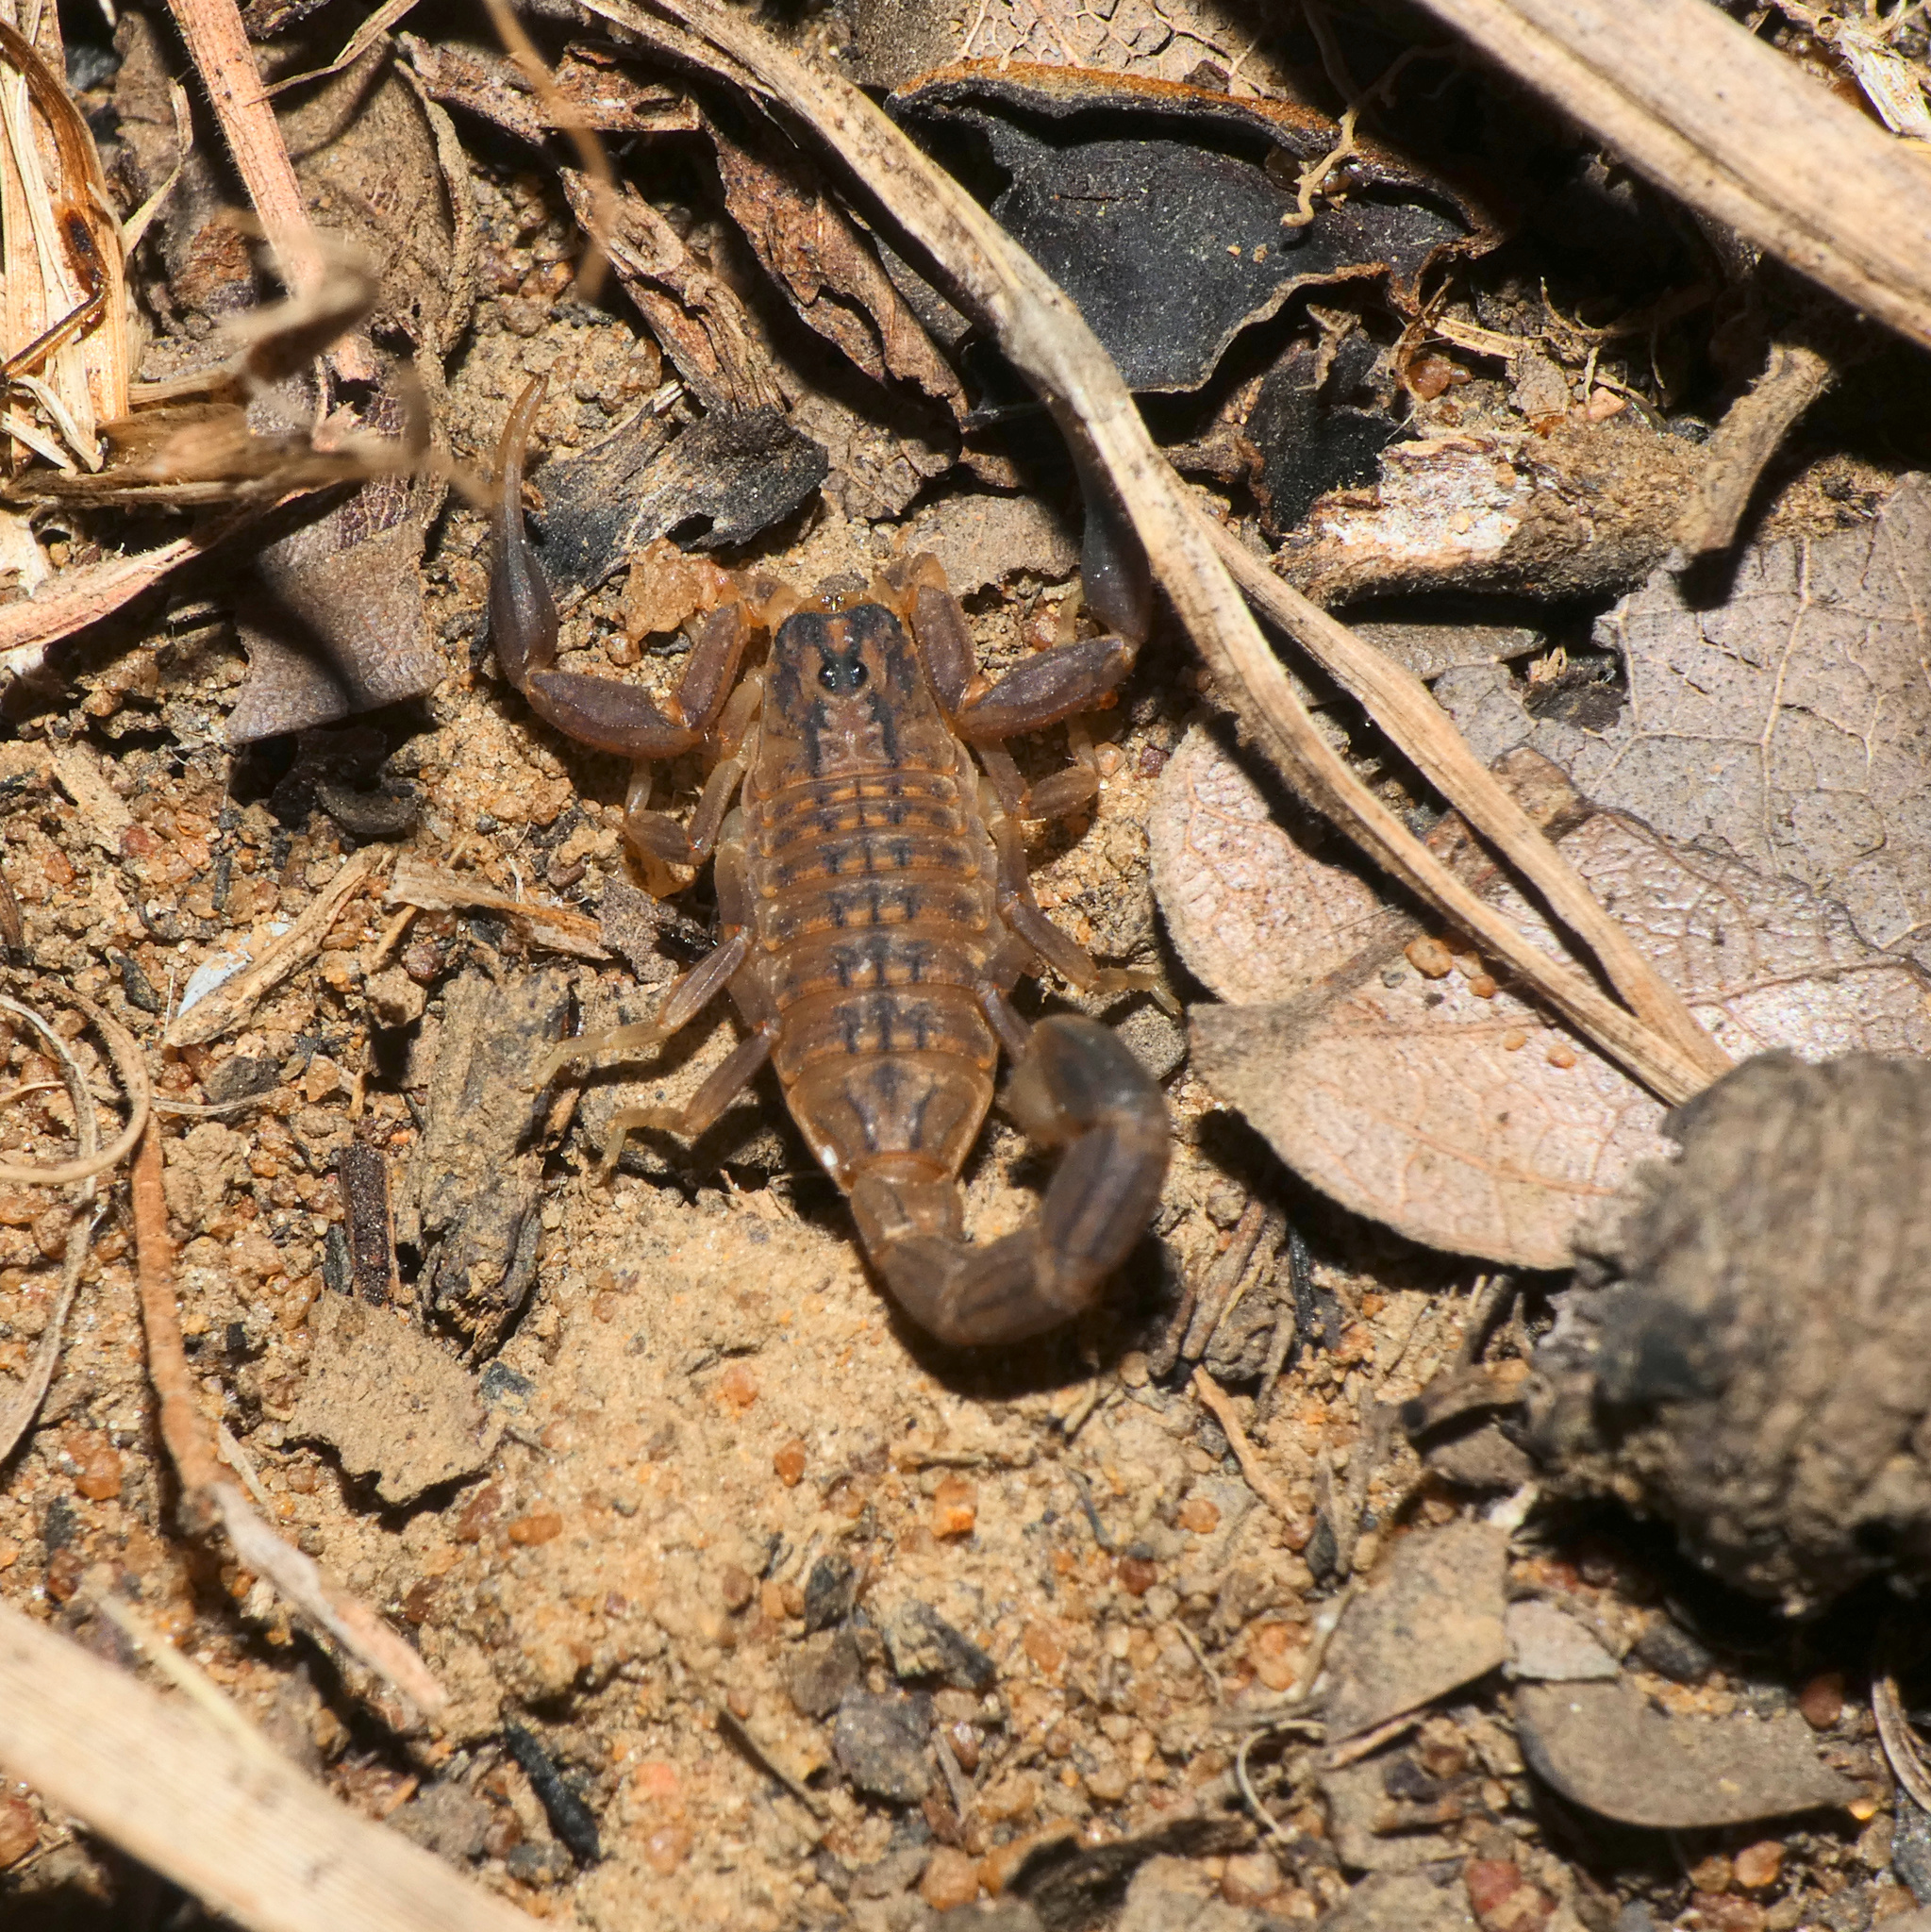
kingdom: Animalia
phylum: Arthropoda
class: Arachnida
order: Scorpiones
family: Buthidae
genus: Hottentotta
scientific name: Hottentotta trilineatus
